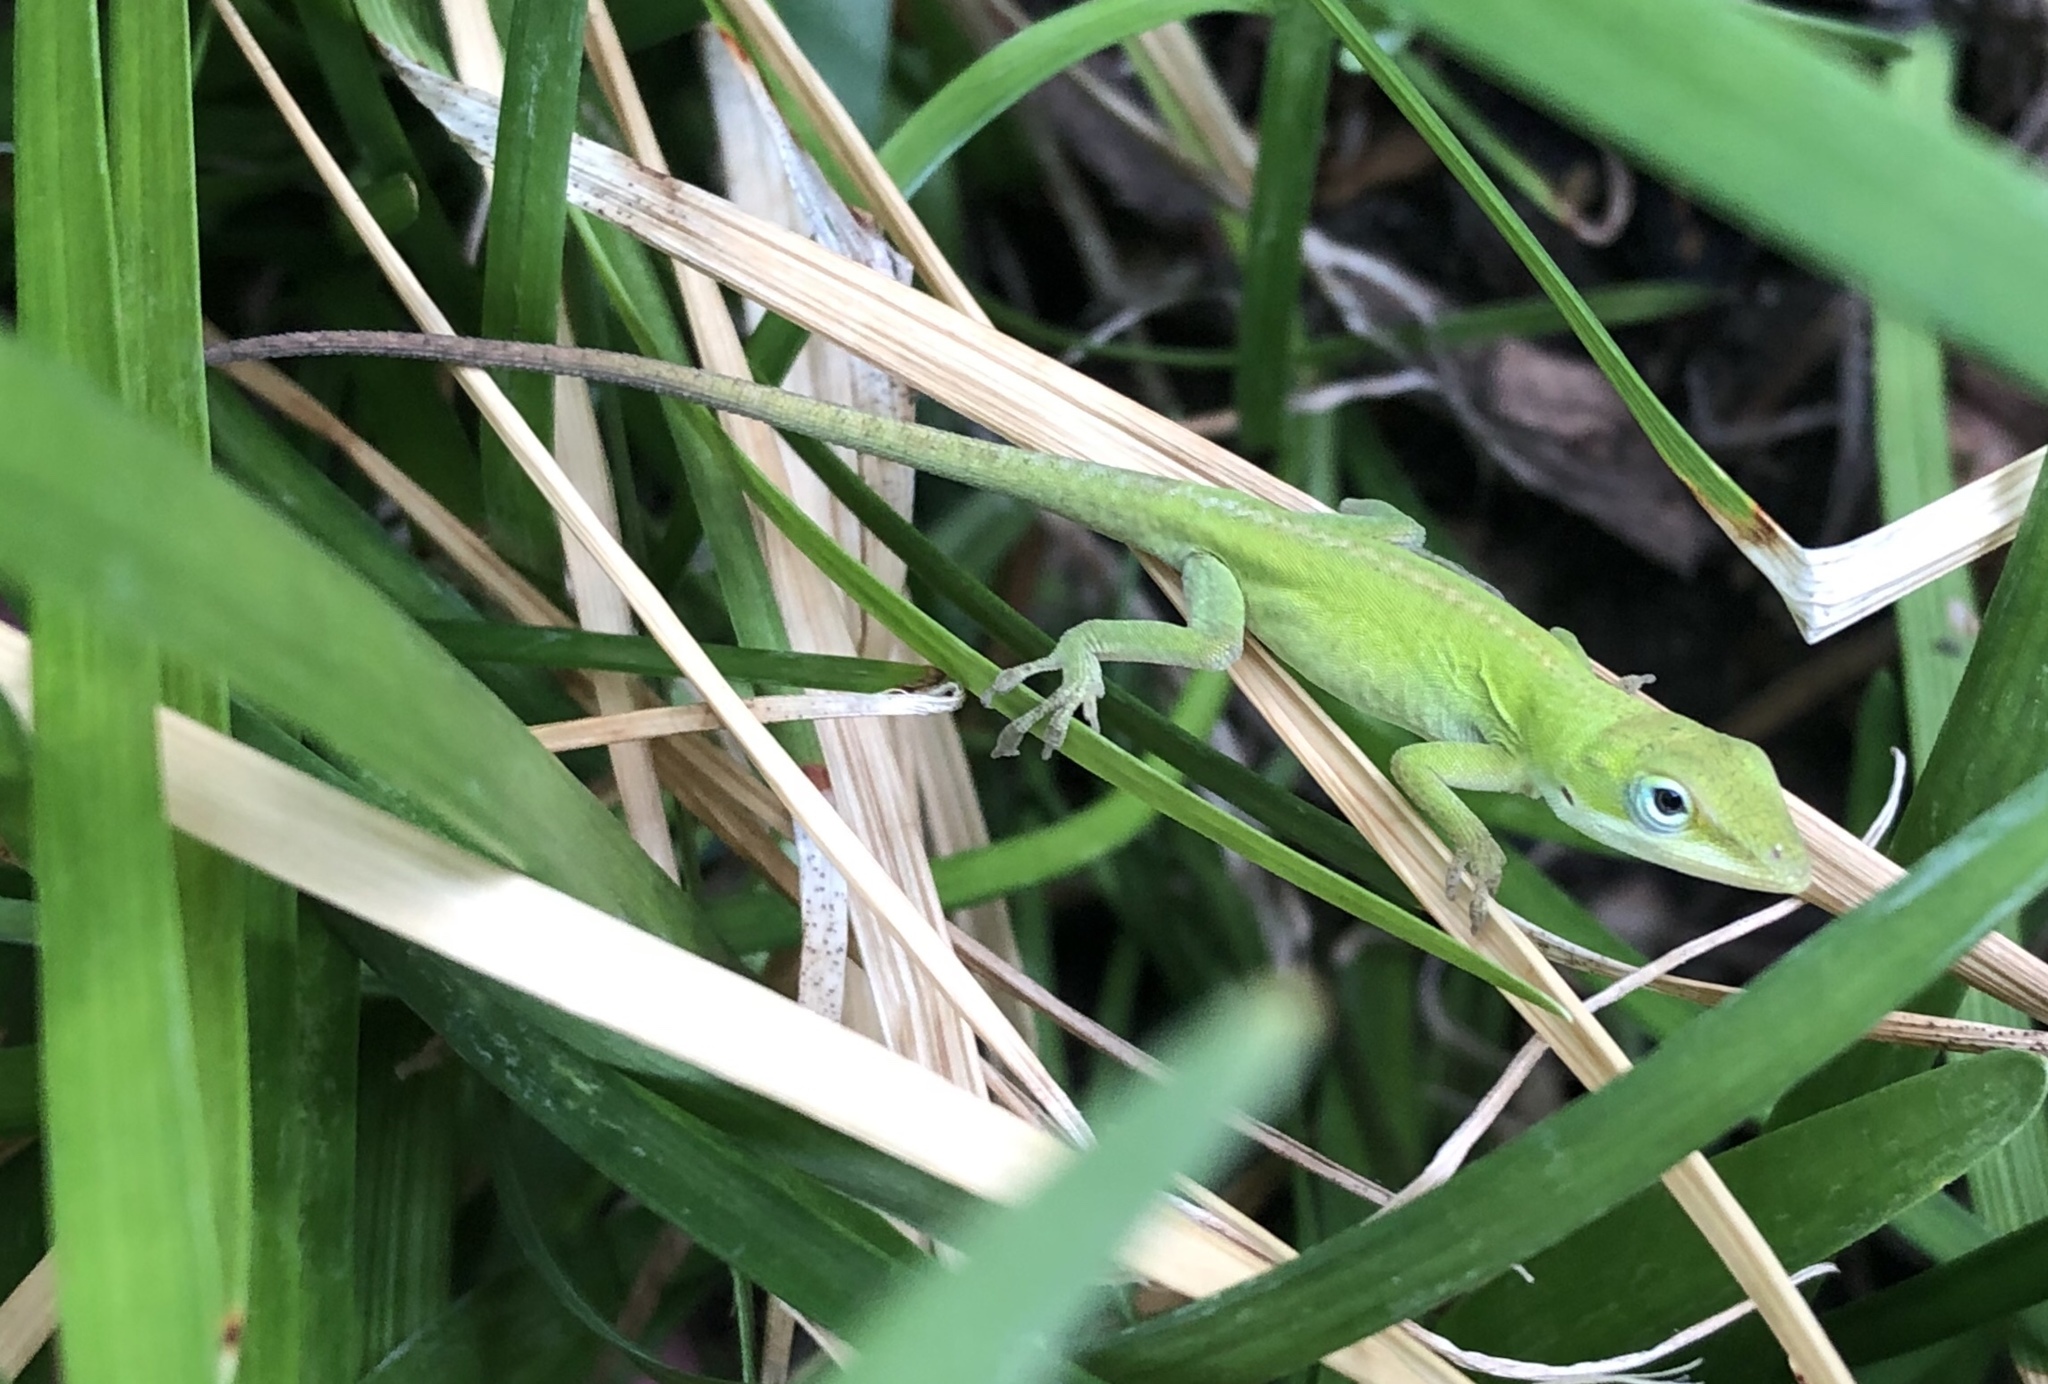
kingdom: Animalia
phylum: Chordata
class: Squamata
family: Dactyloidae
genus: Anolis
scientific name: Anolis carolinensis
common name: Green anole
